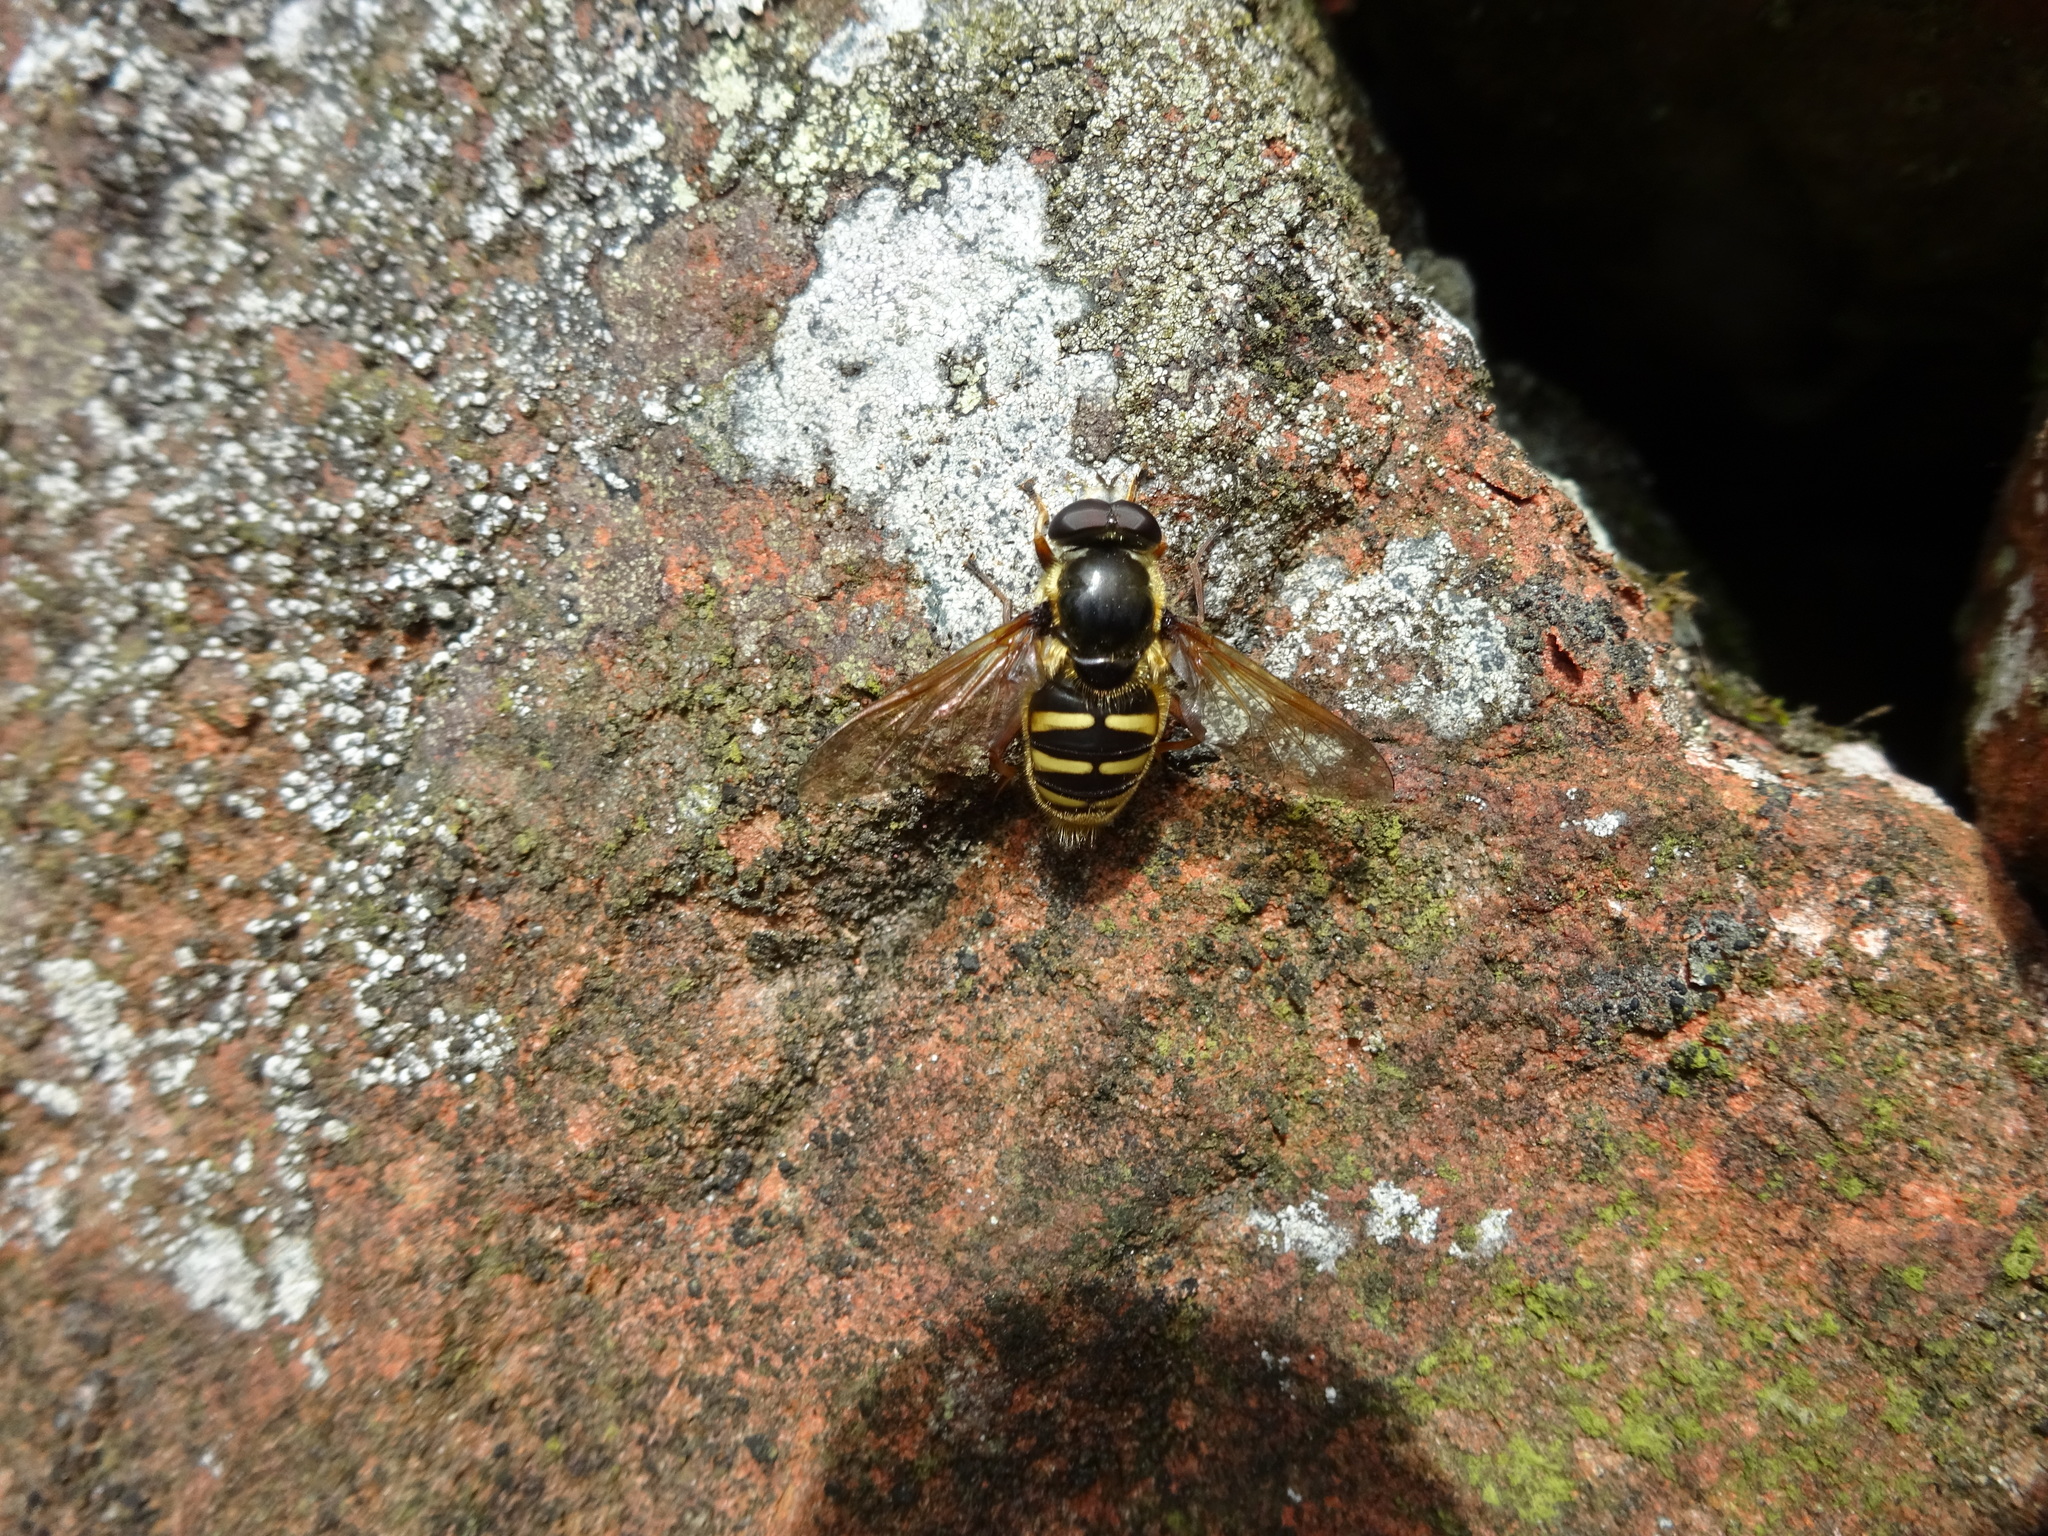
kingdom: Animalia
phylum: Arthropoda
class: Insecta
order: Diptera
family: Syrphidae
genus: Sericomyia
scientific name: Sericomyia silentis
